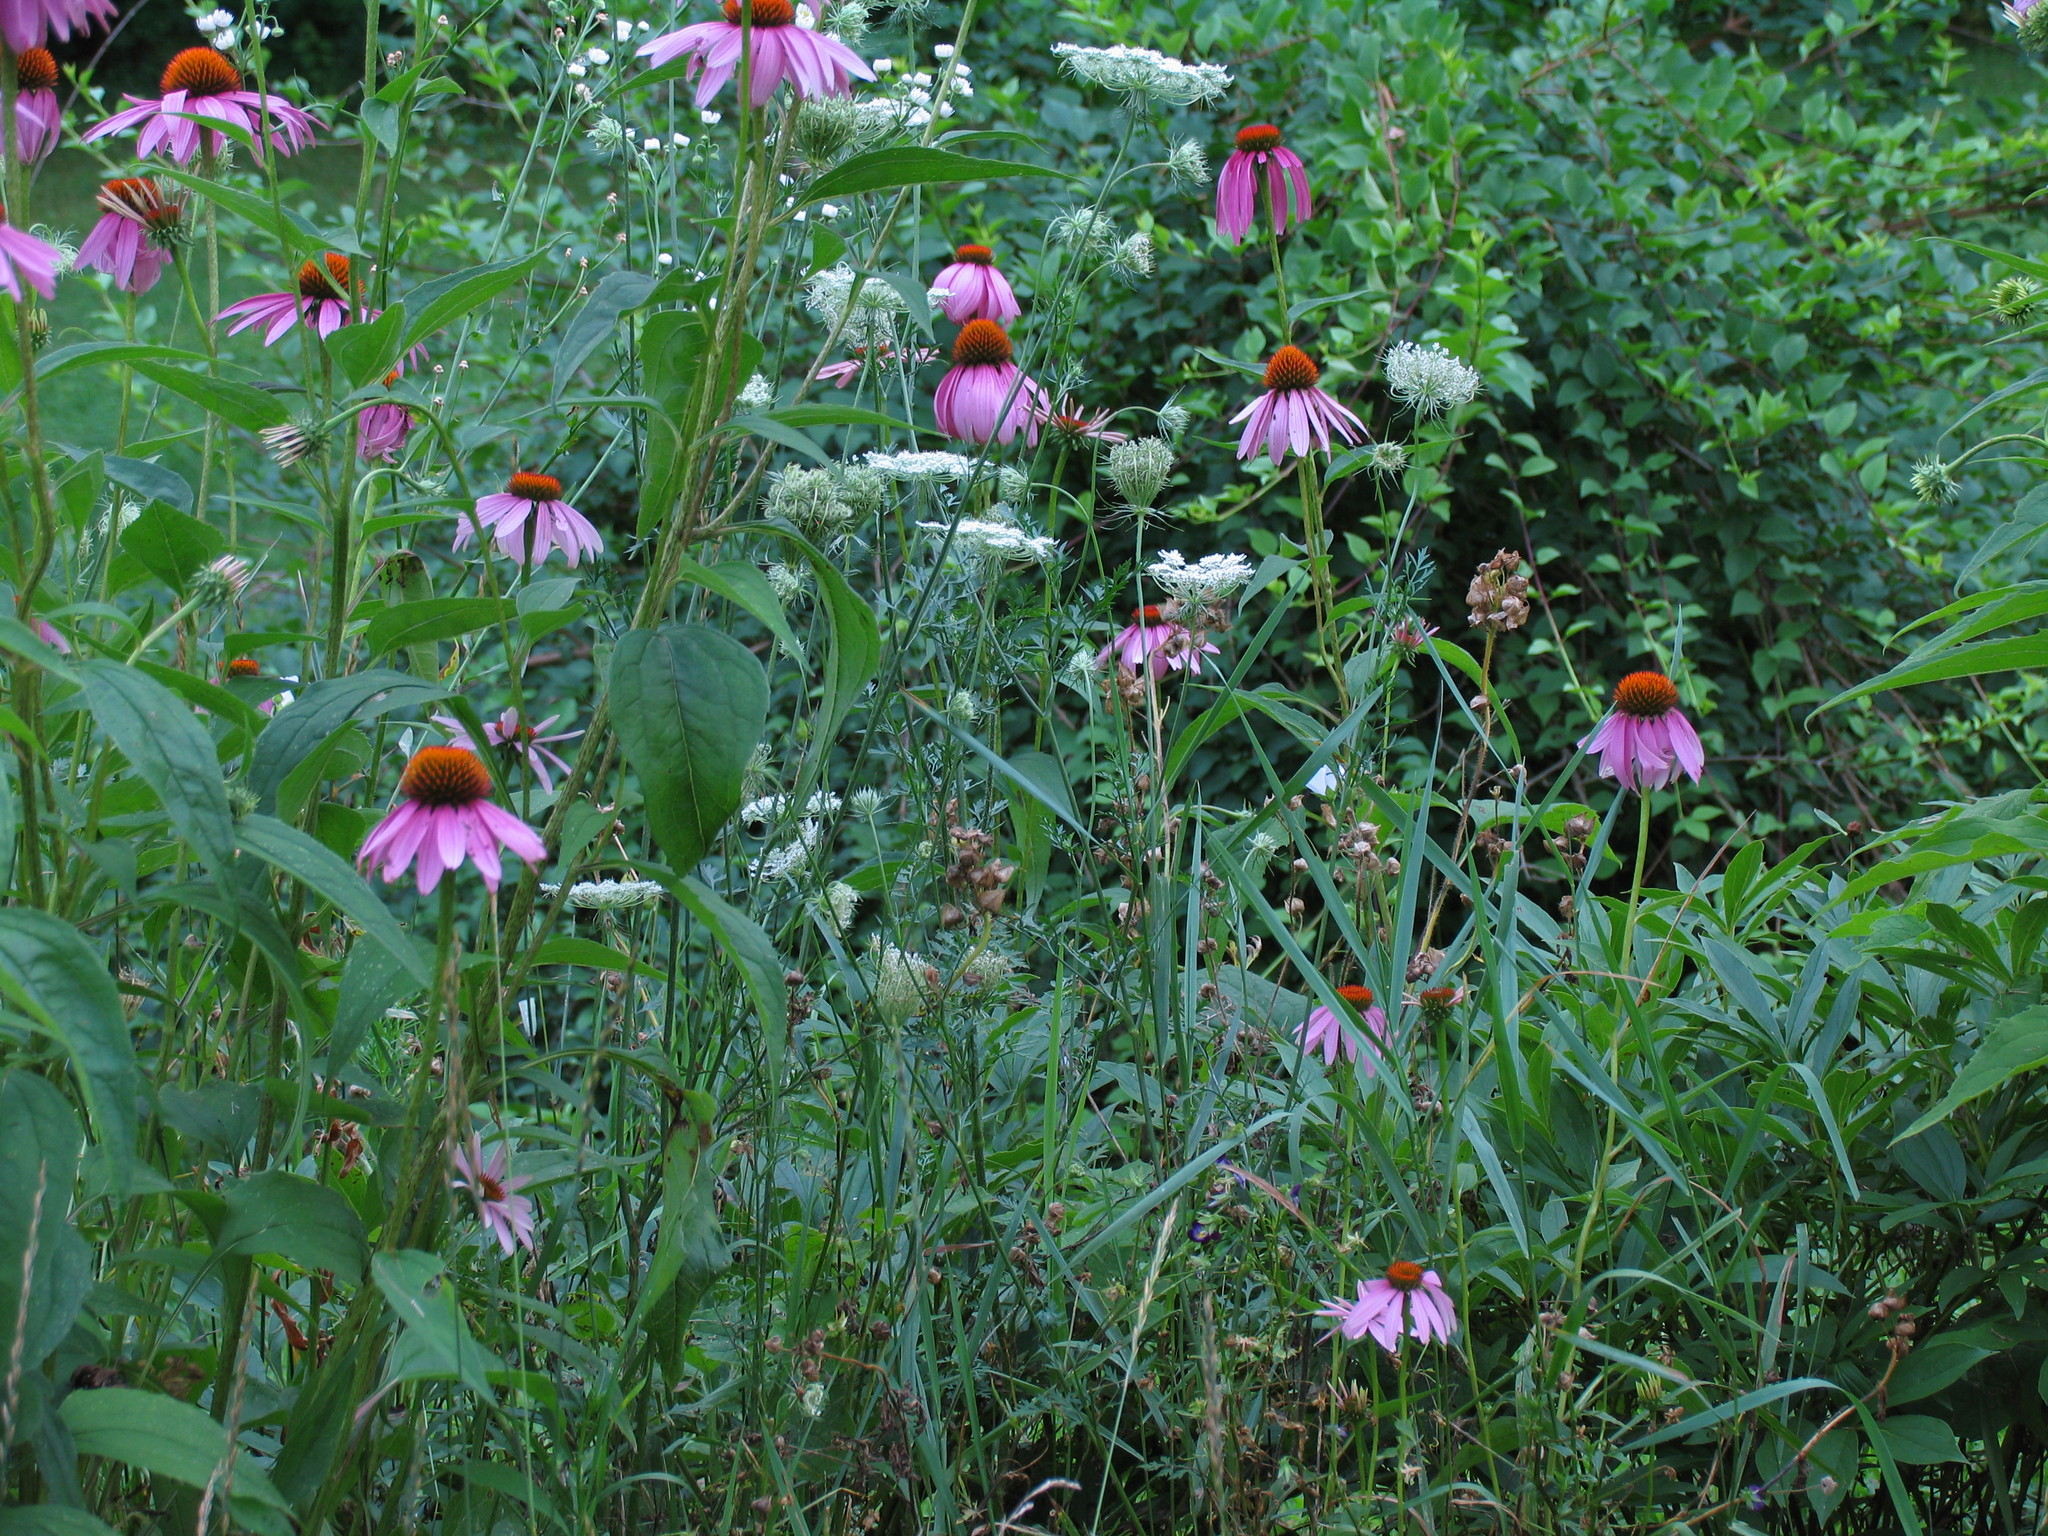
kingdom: Plantae
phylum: Tracheophyta
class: Magnoliopsida
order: Asterales
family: Asteraceae
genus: Echinacea
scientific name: Echinacea purpurea
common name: Broad-leaved purple coneflower
